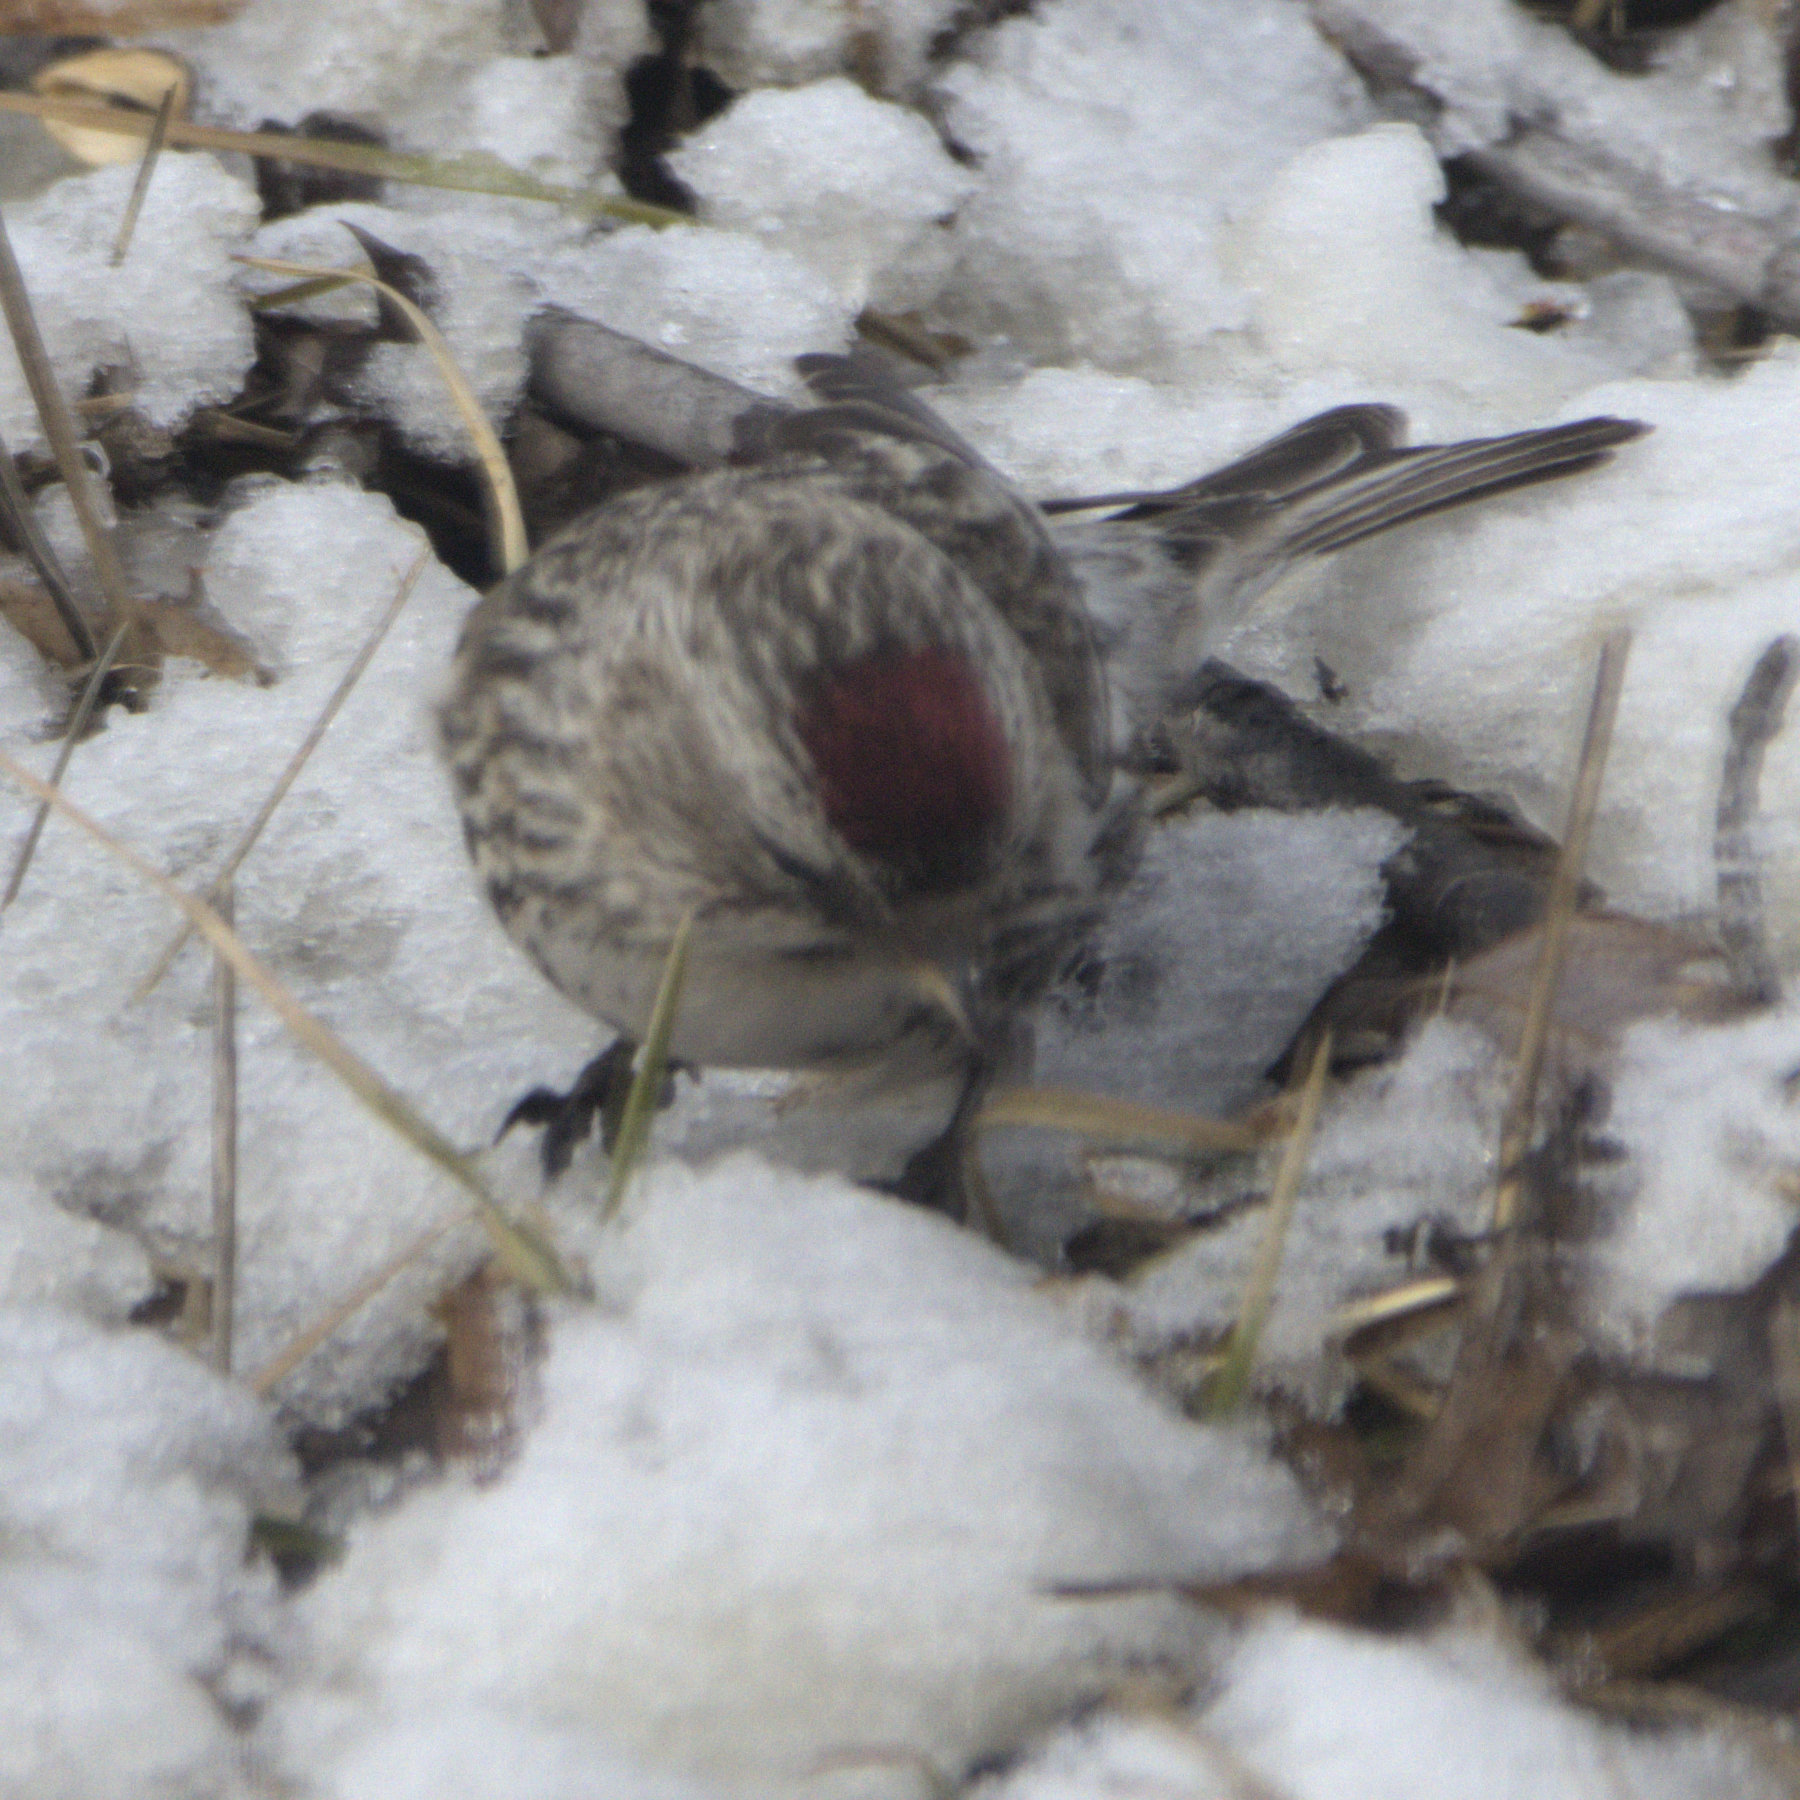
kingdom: Animalia
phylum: Chordata
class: Aves
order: Passeriformes
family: Fringillidae
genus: Acanthis
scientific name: Acanthis flammea
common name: Common redpoll
